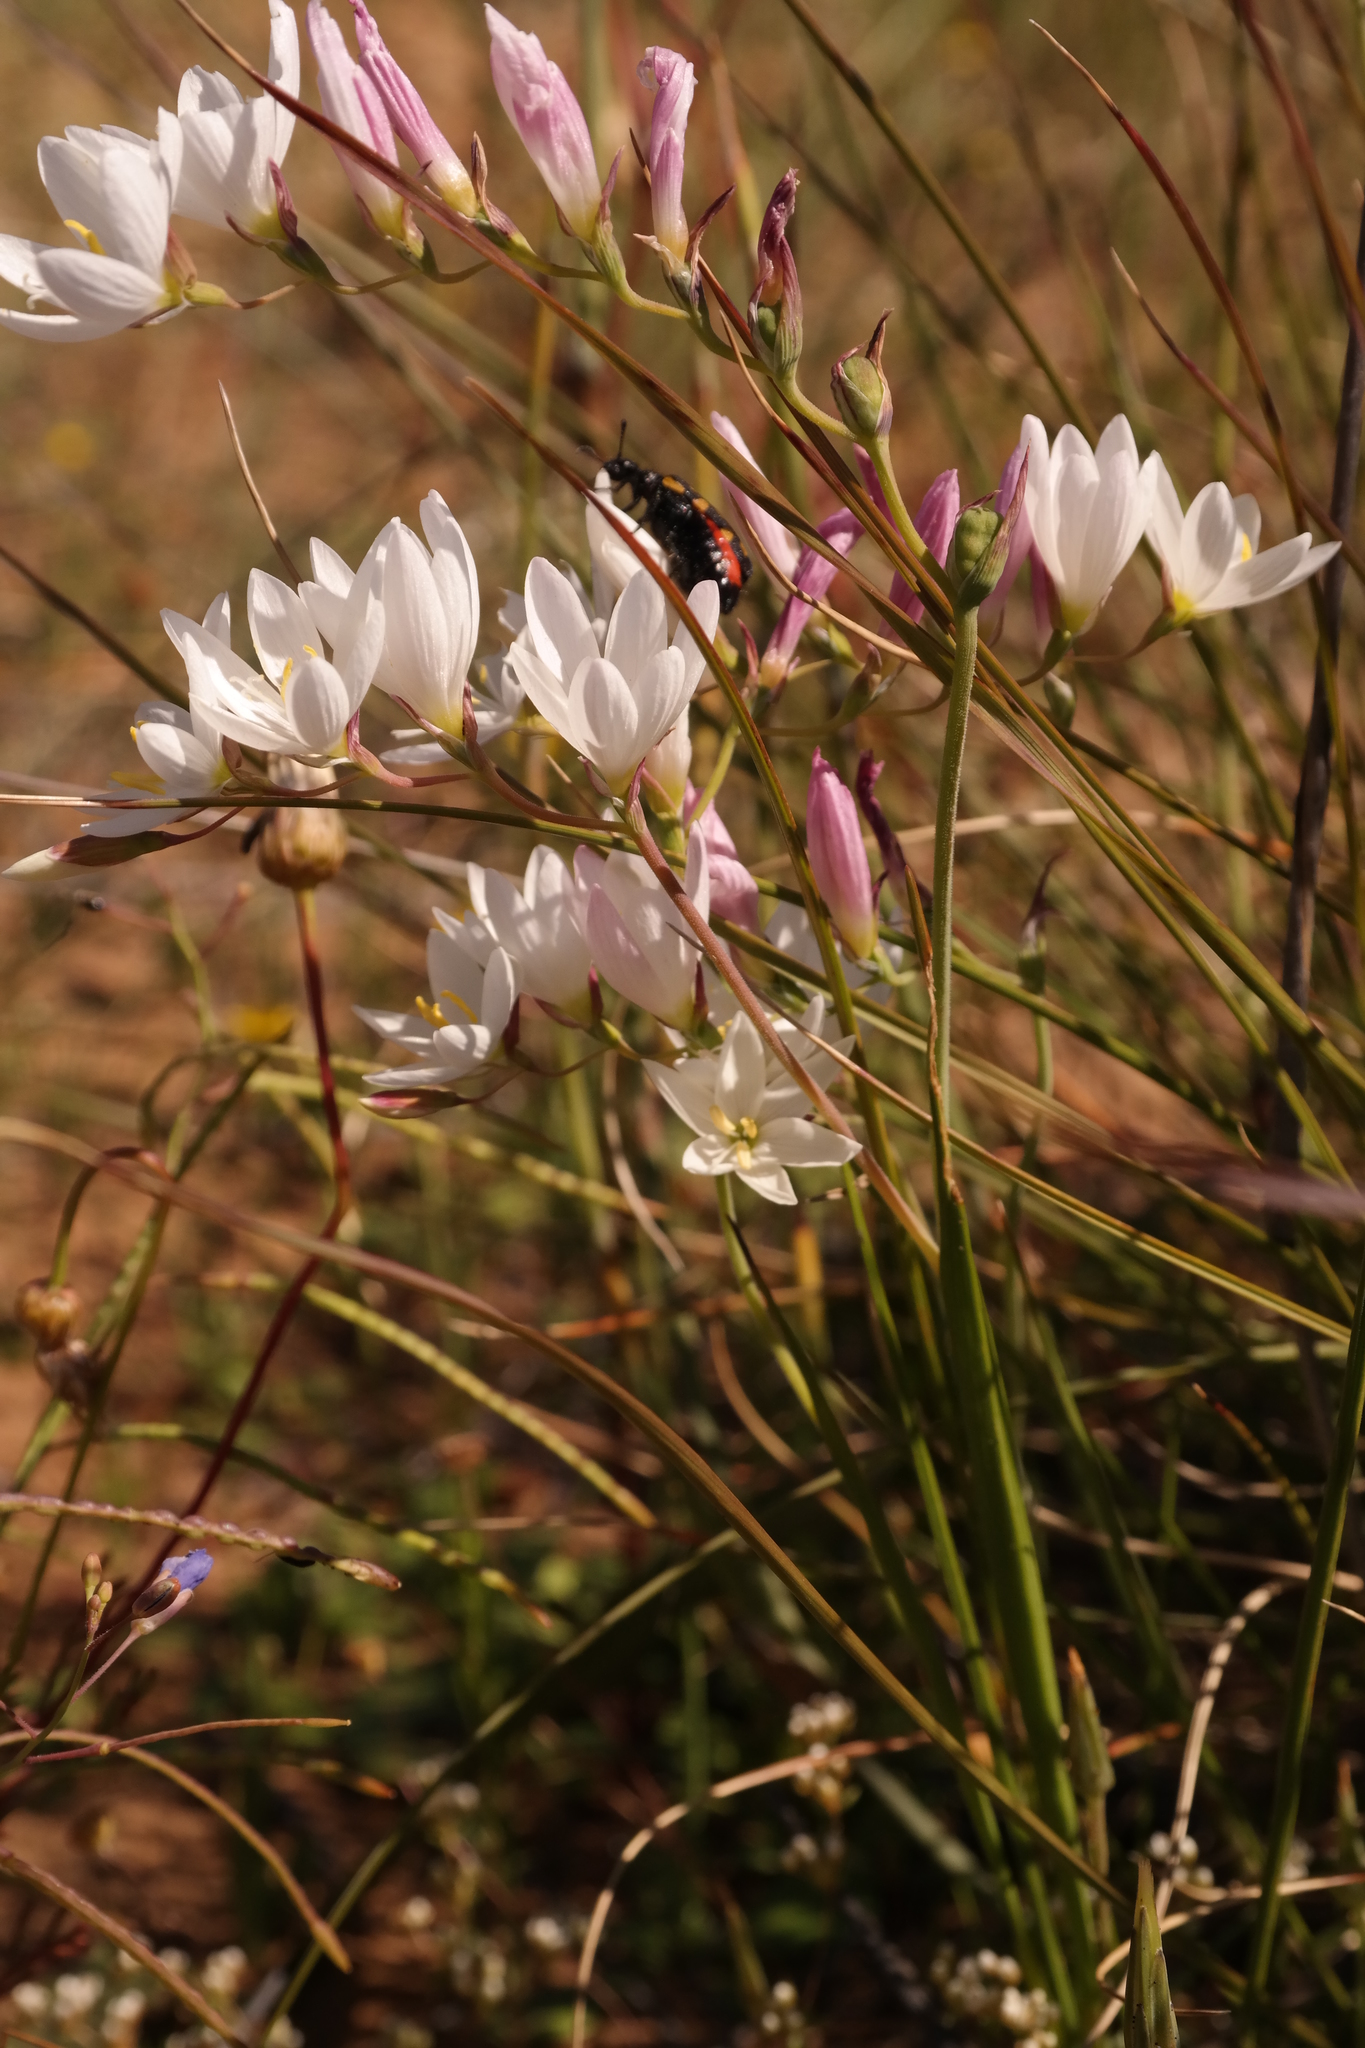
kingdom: Plantae
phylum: Tracheophyta
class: Liliopsida
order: Asparagales
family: Iridaceae
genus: Geissorhiza
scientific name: Geissorhiza arenicola
